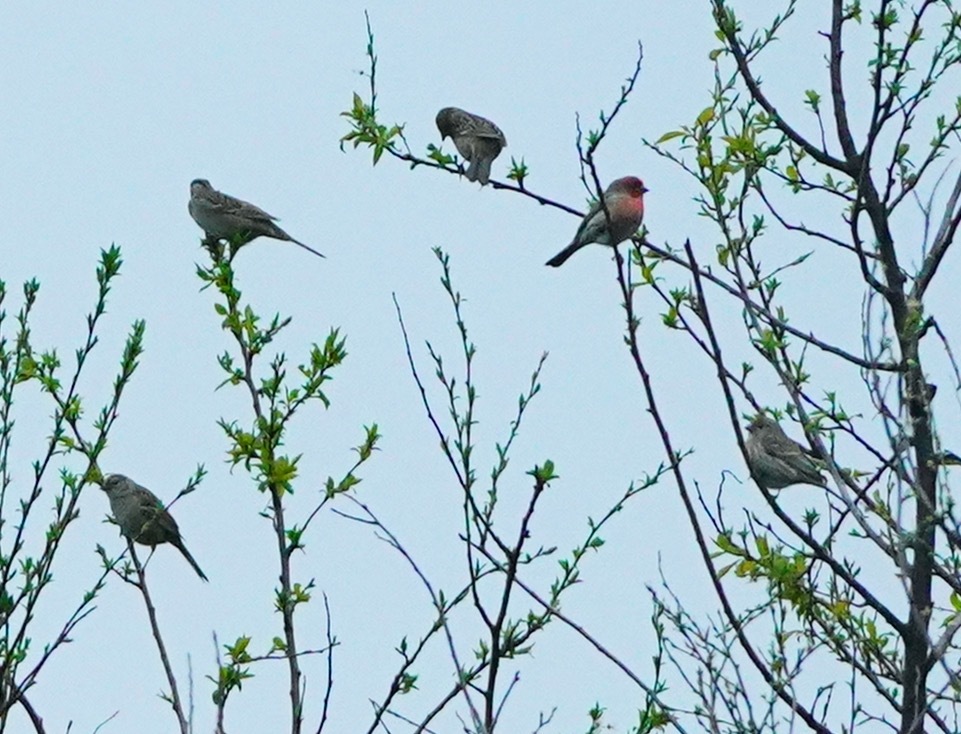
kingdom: Animalia
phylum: Chordata
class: Aves
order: Passeriformes
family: Fringillidae
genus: Haemorhous
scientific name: Haemorhous mexicanus
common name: House finch
